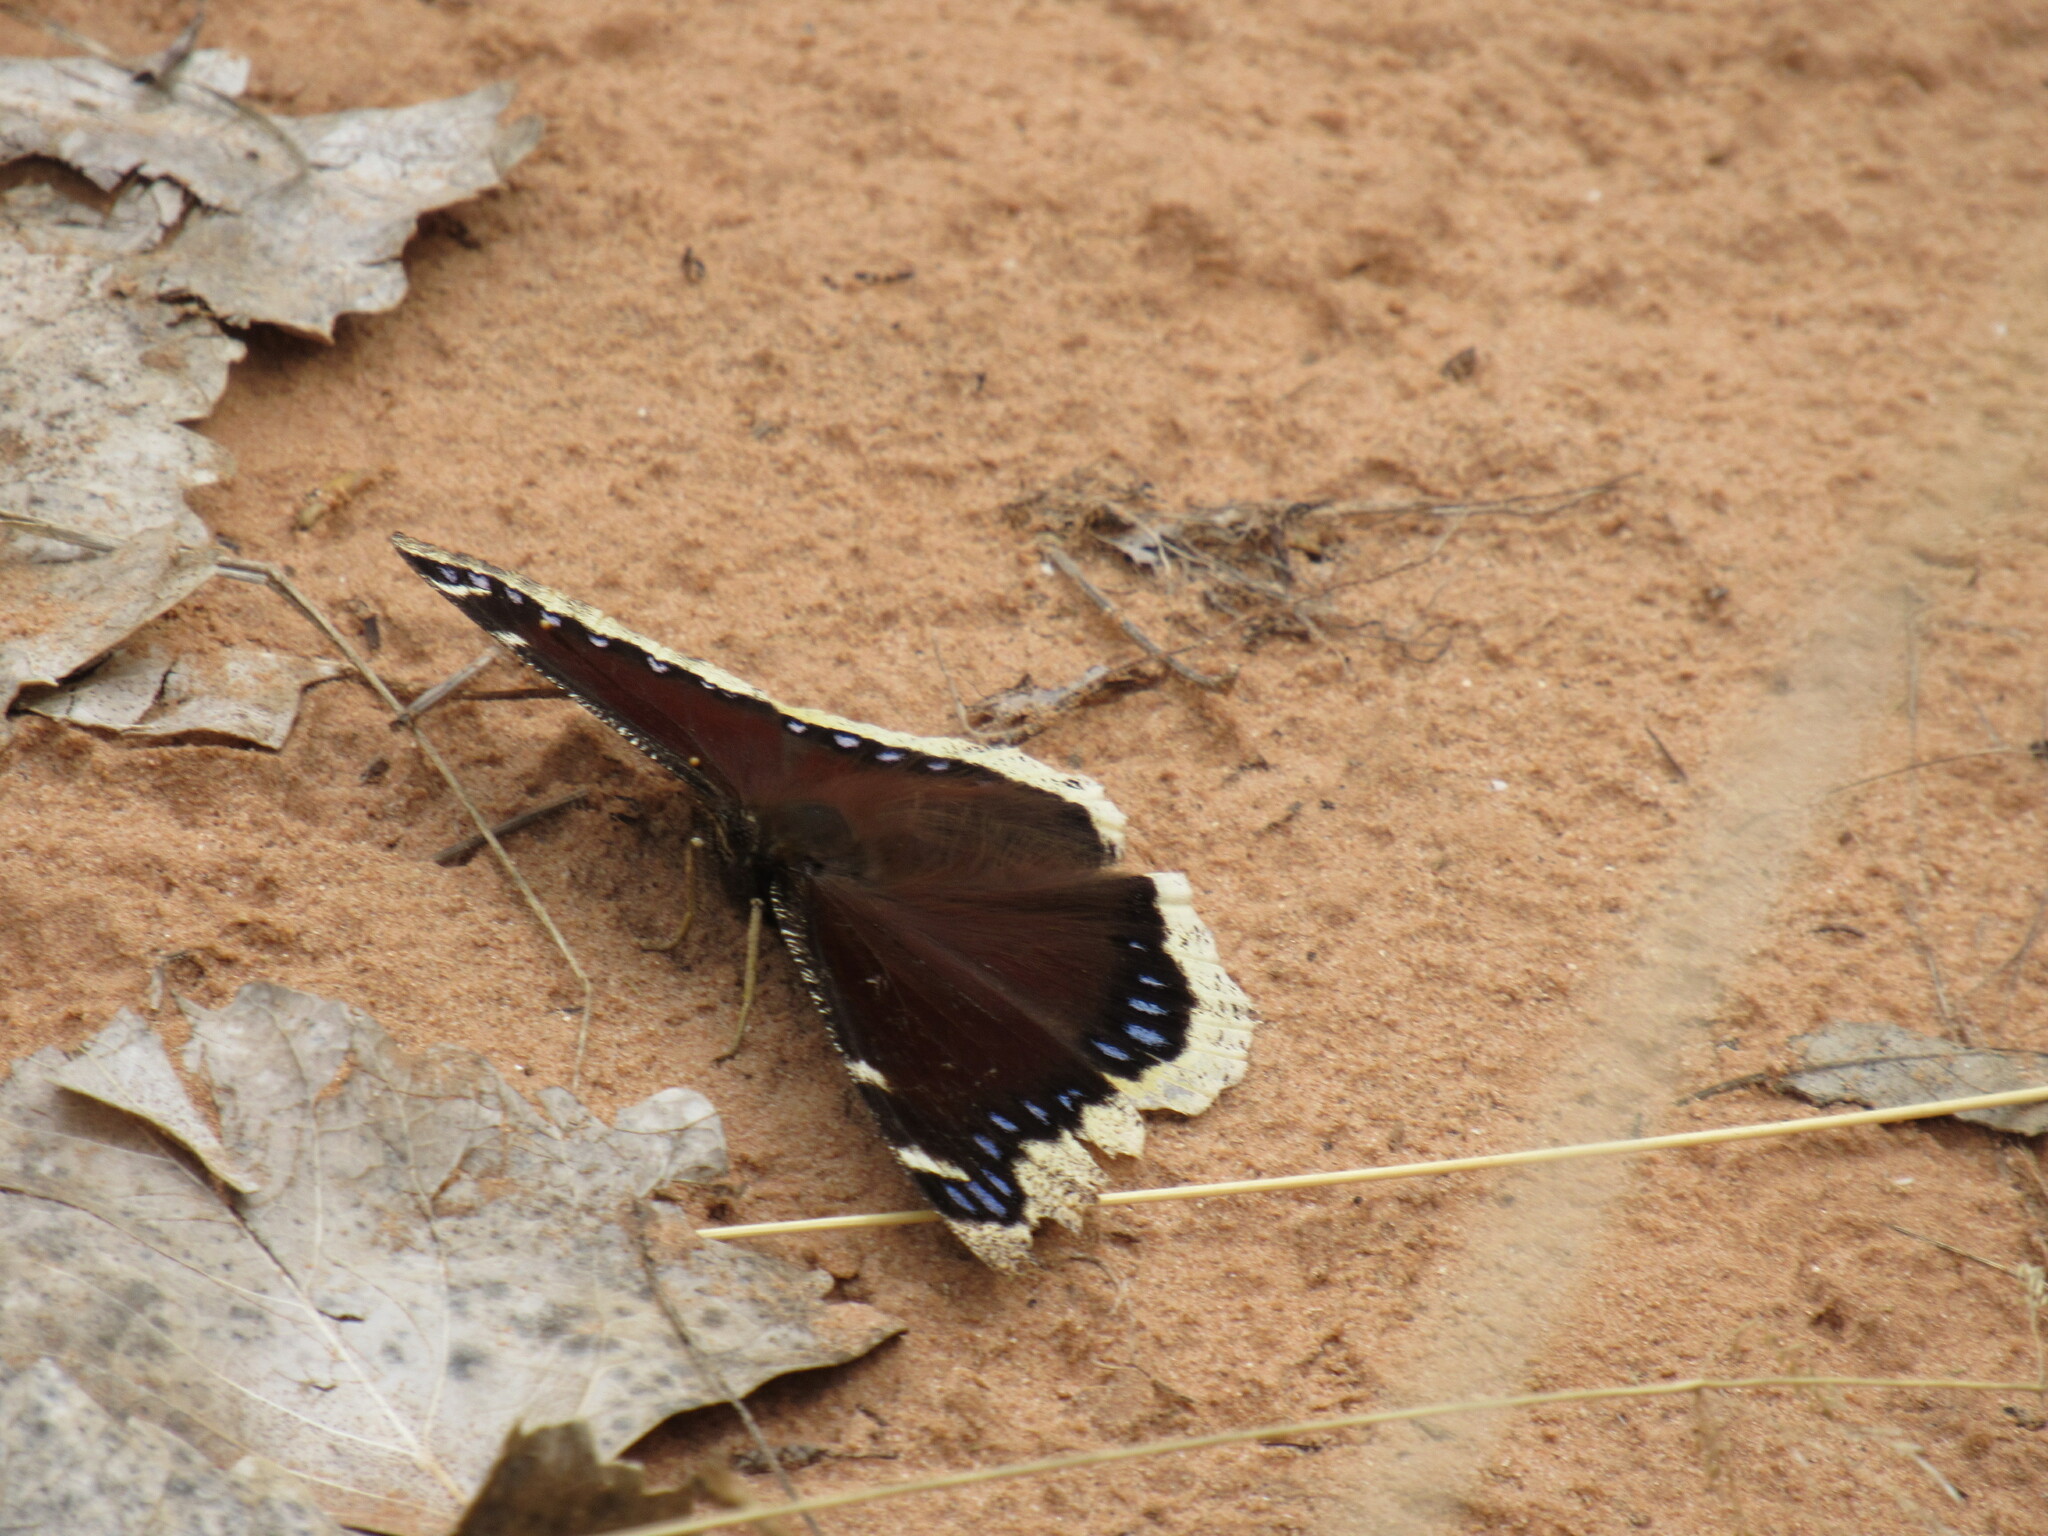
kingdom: Animalia
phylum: Arthropoda
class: Insecta
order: Lepidoptera
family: Nymphalidae
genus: Nymphalis
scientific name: Nymphalis antiopa
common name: Camberwell beauty
